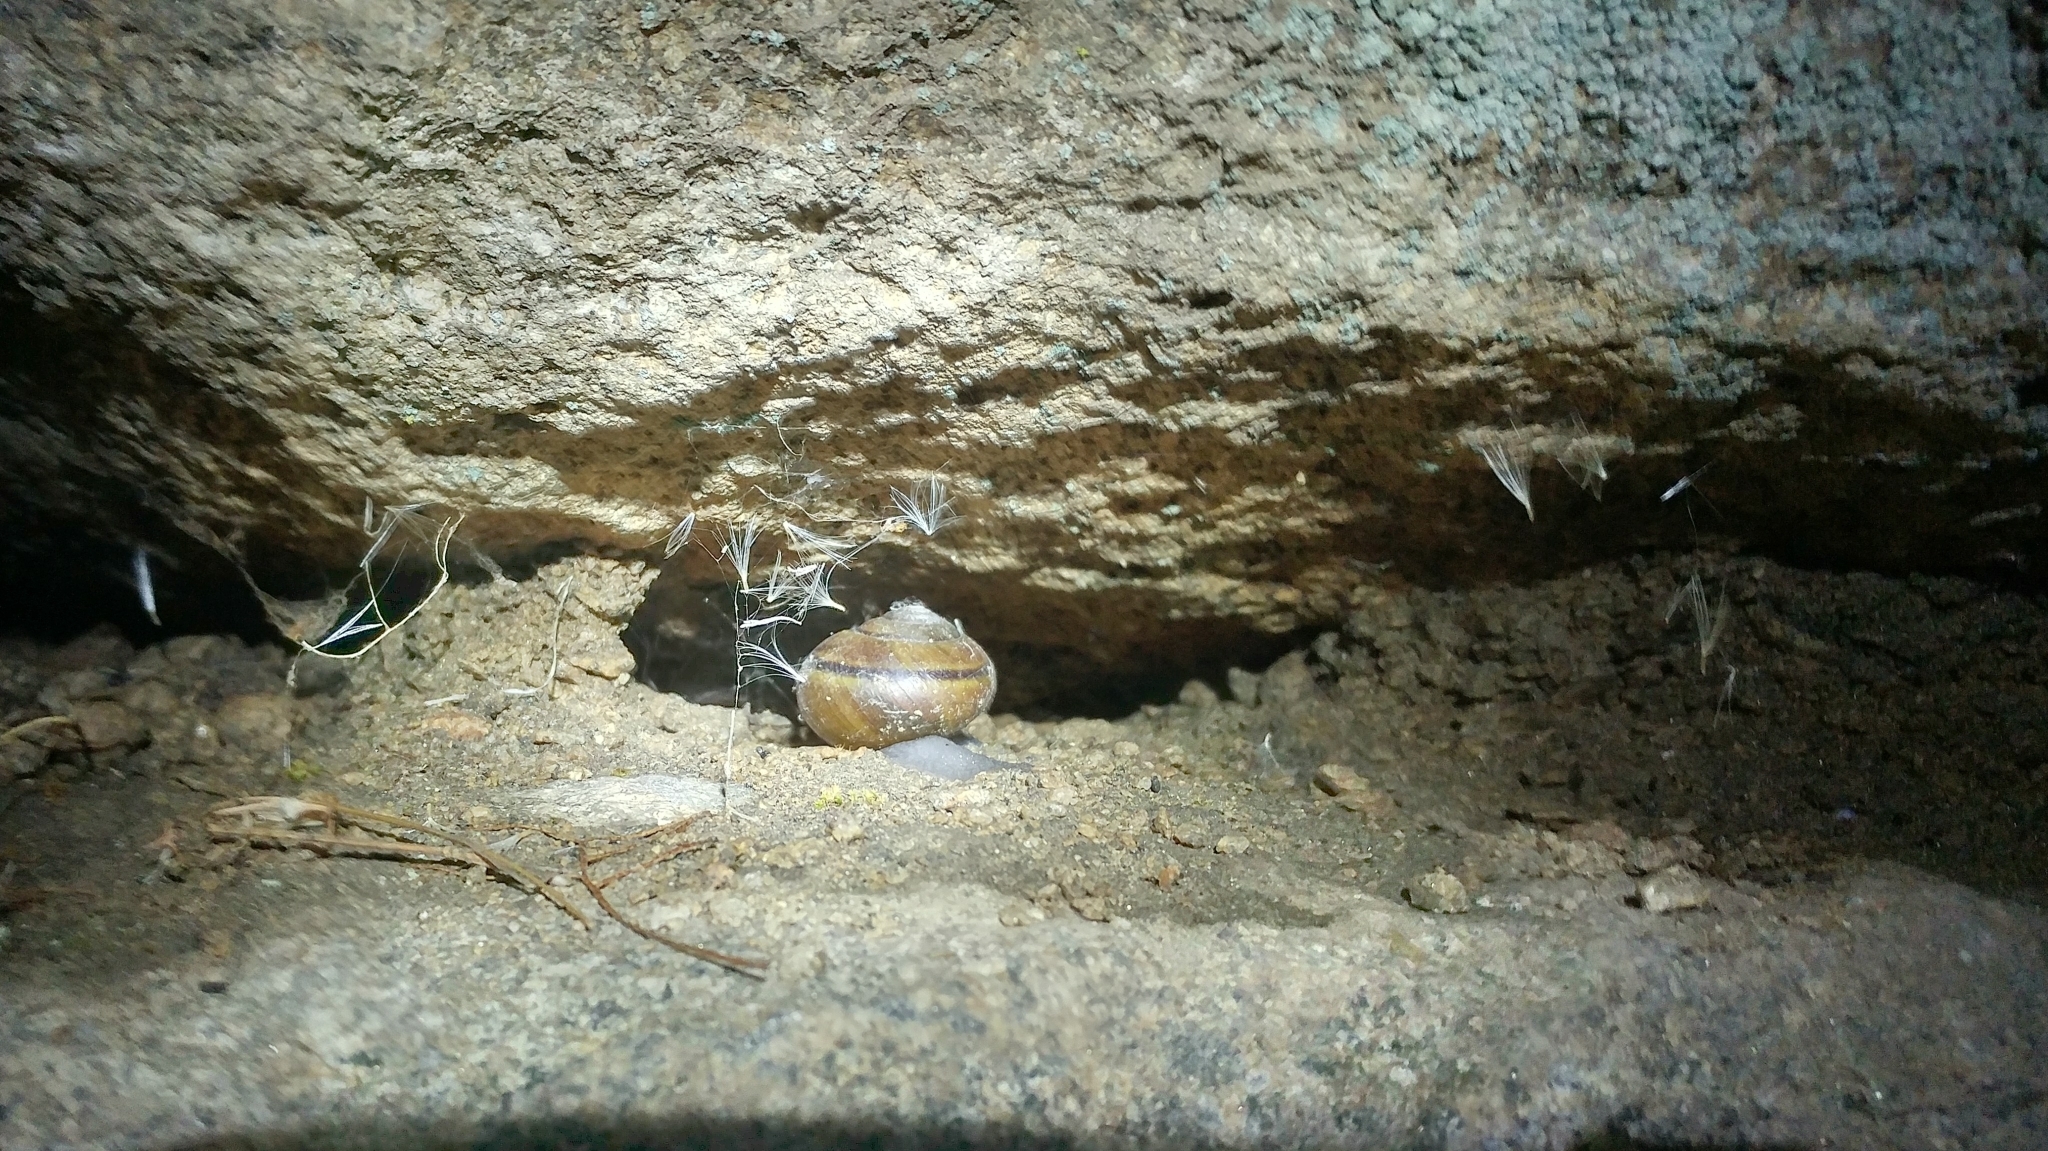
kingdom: Animalia
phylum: Mollusca
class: Gastropoda
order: Stylommatophora
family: Xanthonychidae
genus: Helminthoglypta
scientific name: Helminthoglypta tudiculata
